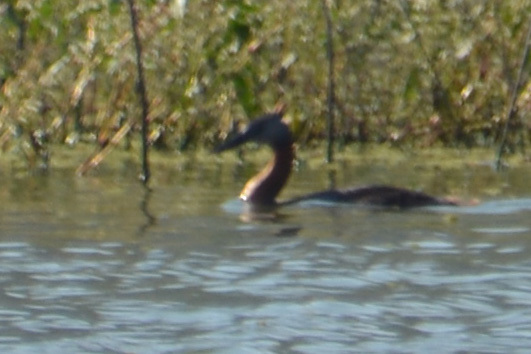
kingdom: Animalia
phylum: Chordata
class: Aves
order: Podicipediformes
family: Podicipedidae
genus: Podiceps
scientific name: Podiceps major
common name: Great grebe
